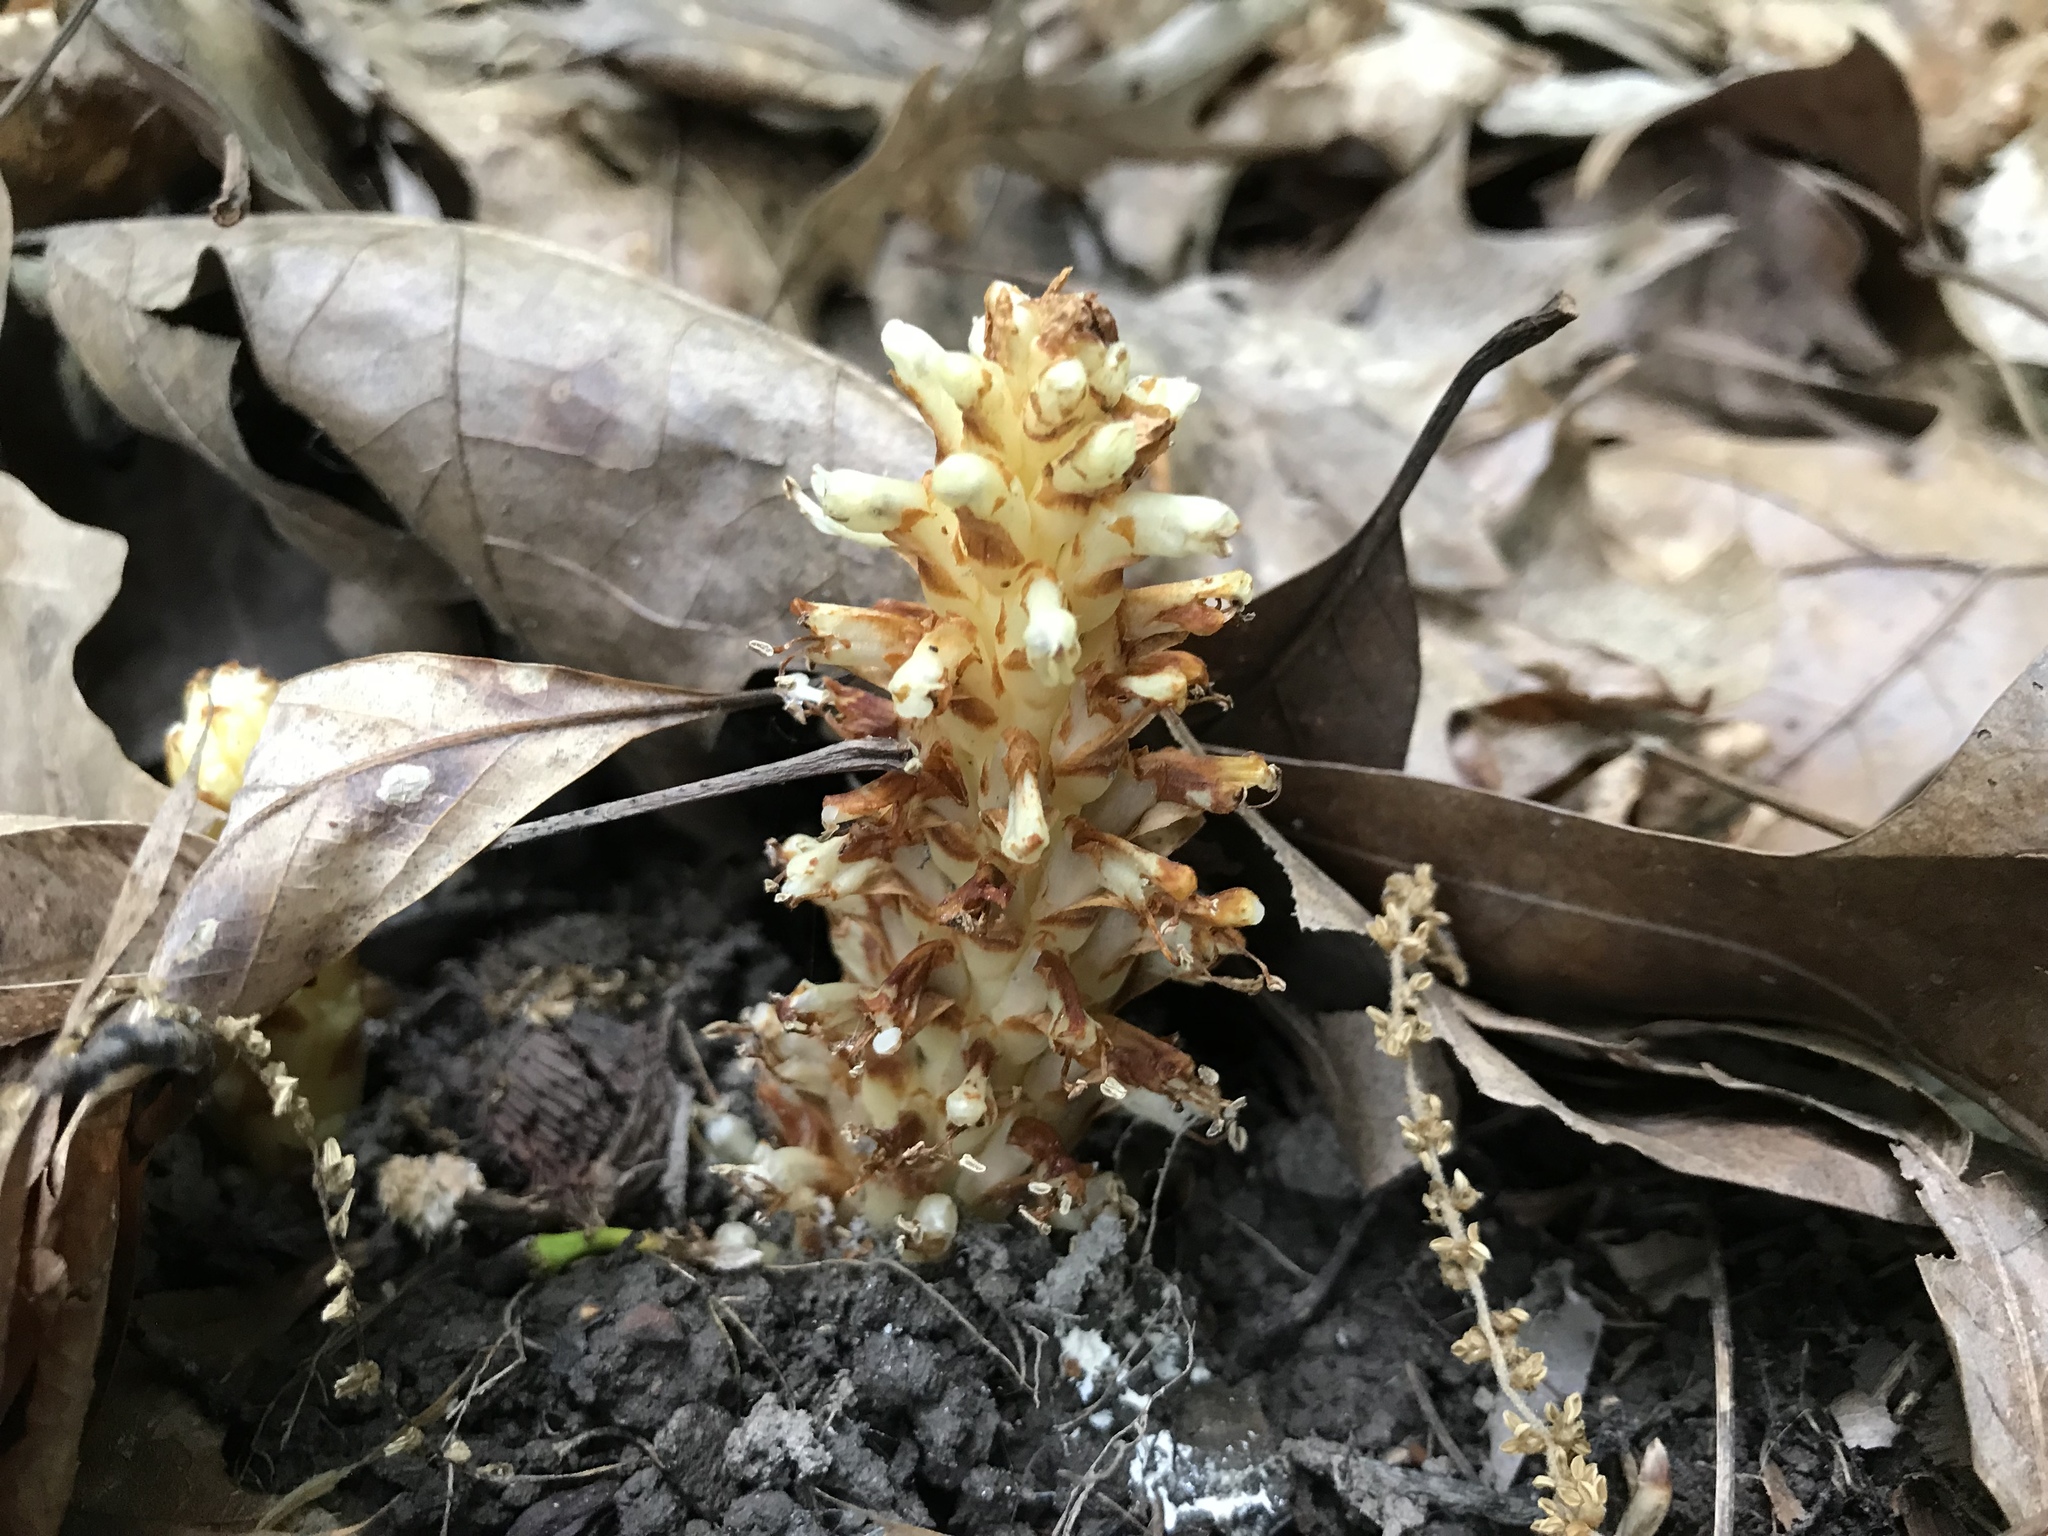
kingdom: Plantae
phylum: Tracheophyta
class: Magnoliopsida
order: Lamiales
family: Orobanchaceae
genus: Conopholis
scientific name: Conopholis americana
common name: American cancer-root
